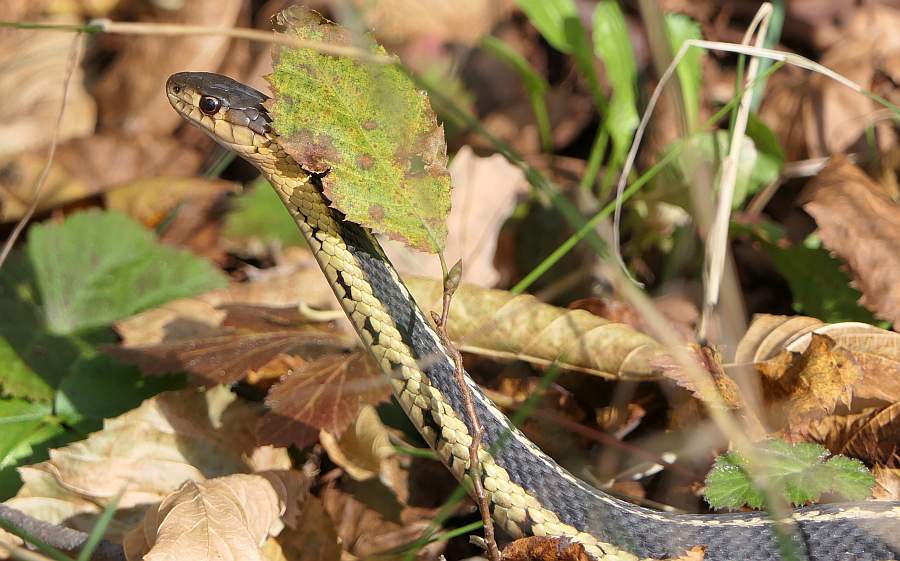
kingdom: Animalia
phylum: Chordata
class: Squamata
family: Colubridae
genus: Thamnophis
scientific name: Thamnophis sirtalis
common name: Common garter snake
